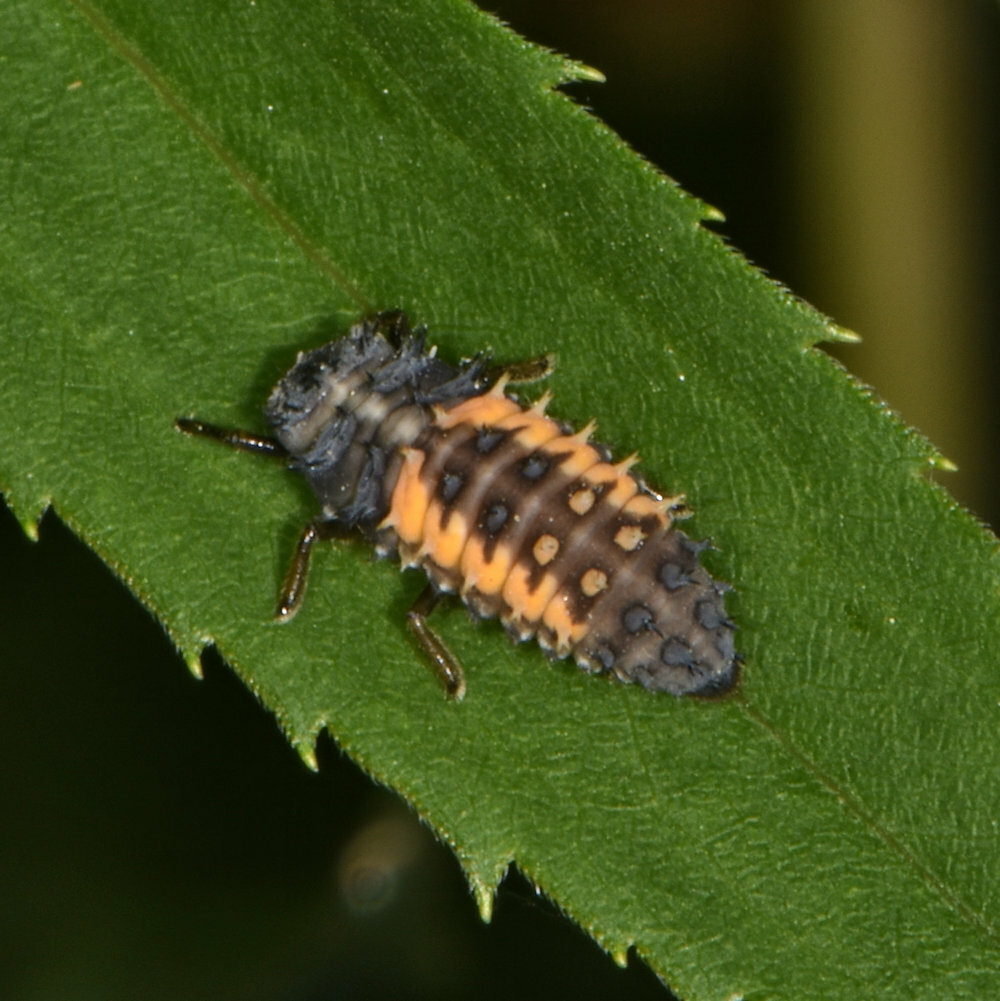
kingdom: Animalia
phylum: Arthropoda
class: Insecta
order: Coleoptera
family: Coccinellidae
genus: Harmonia
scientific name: Harmonia axyridis
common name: Harlequin ladybird
